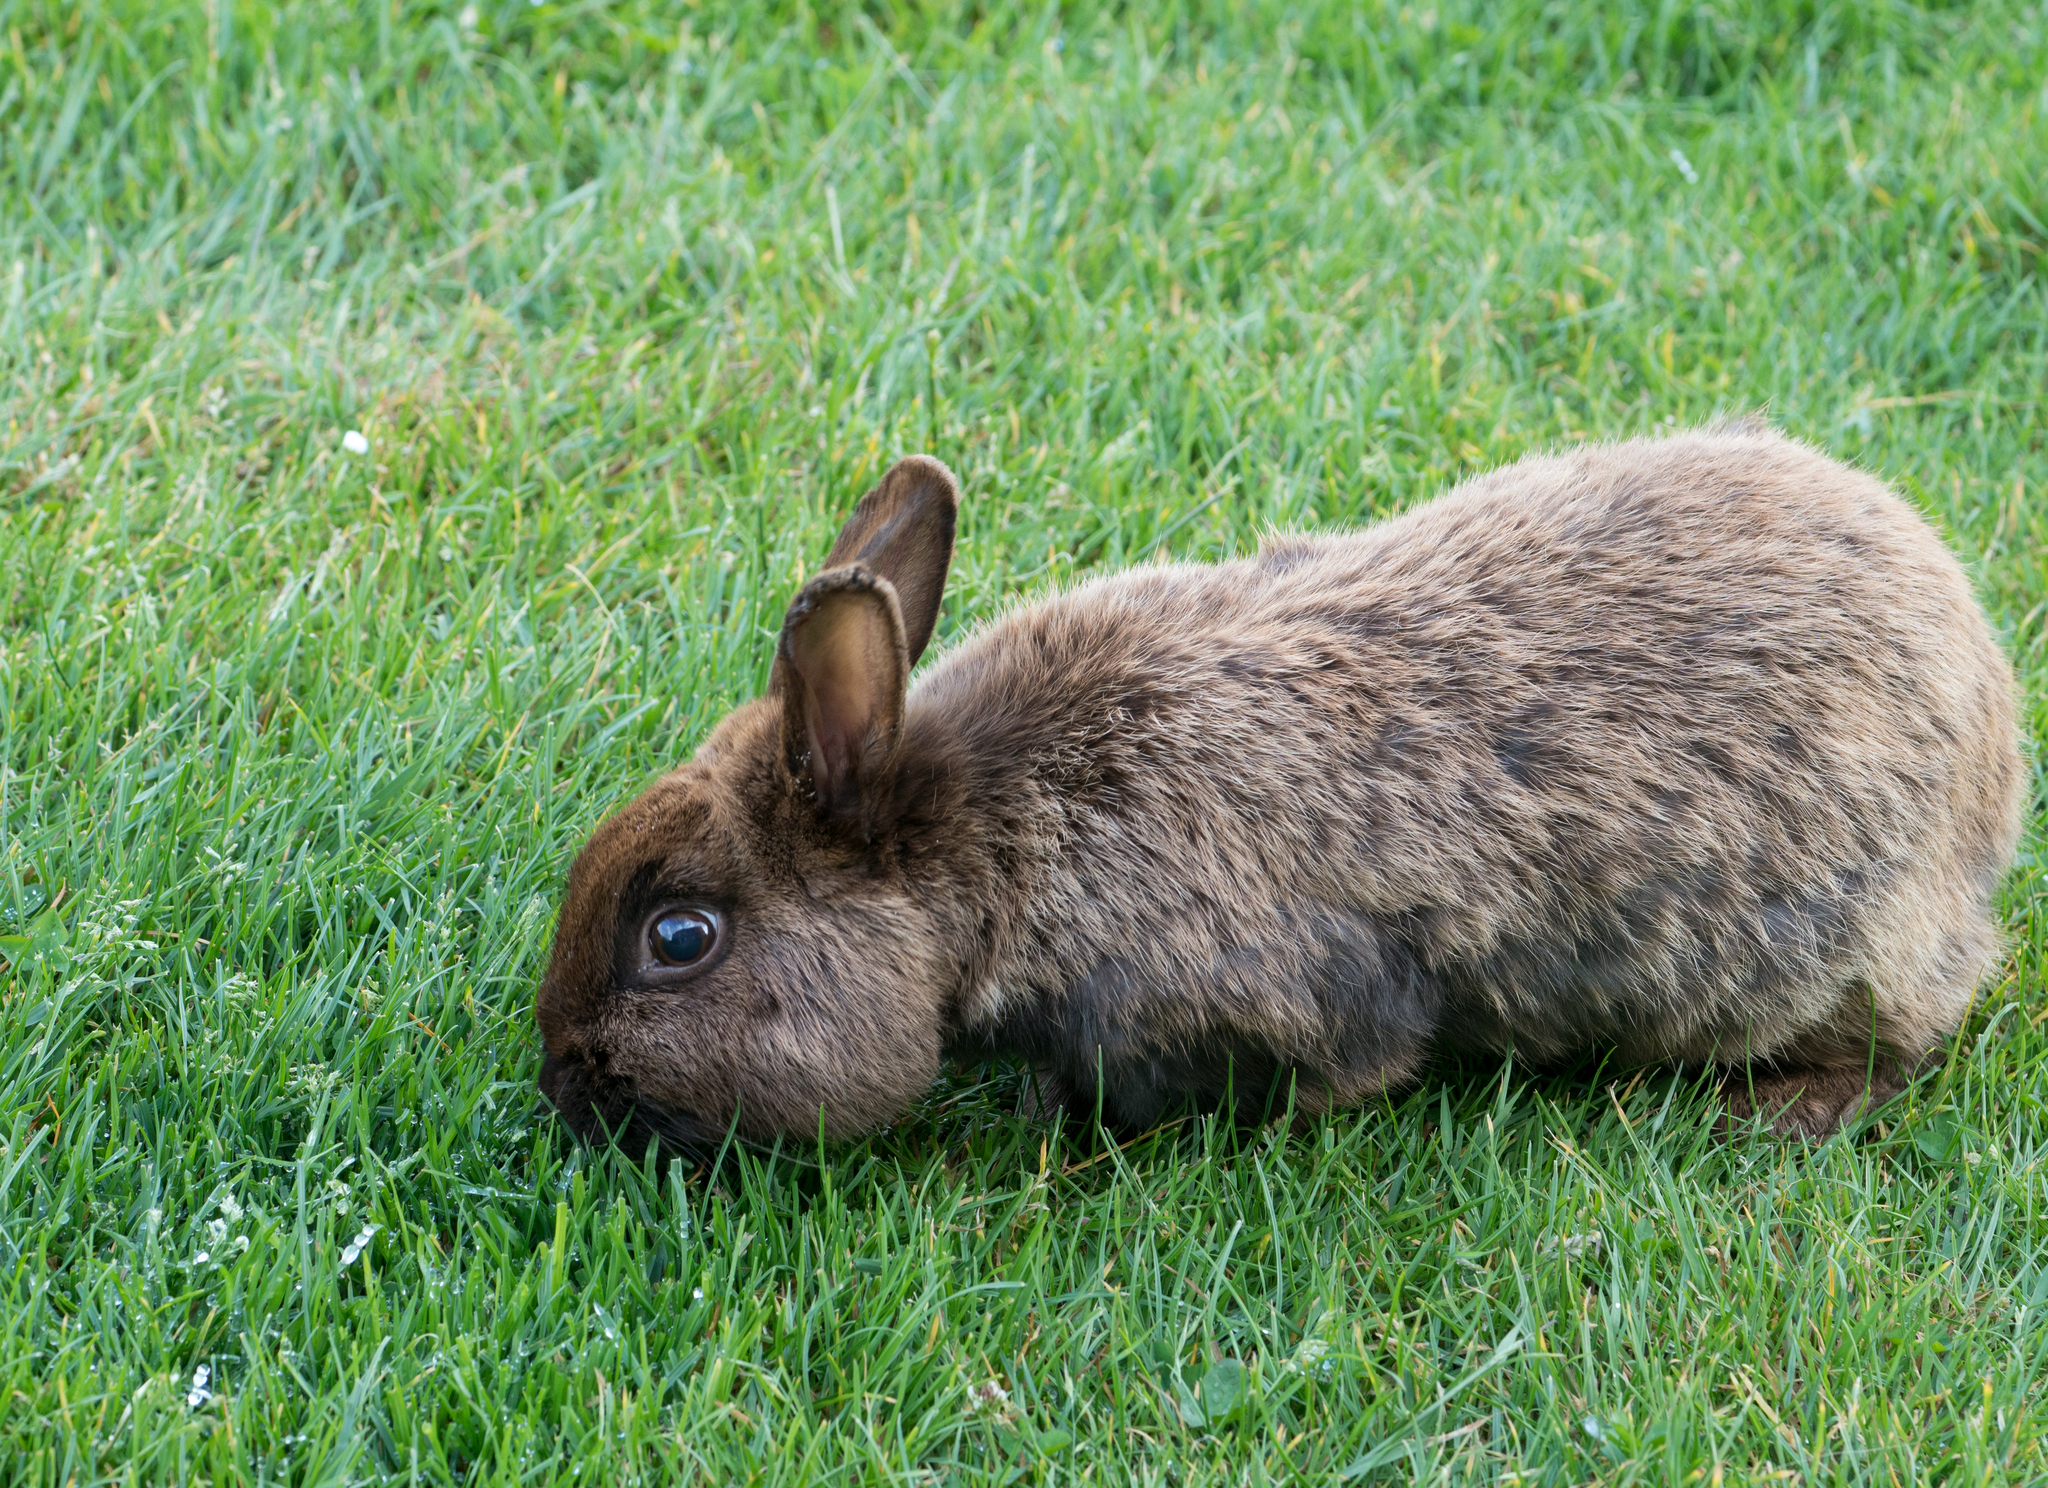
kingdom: Animalia
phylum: Chordata
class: Mammalia
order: Lagomorpha
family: Leporidae
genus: Oryctolagus
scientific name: Oryctolagus cuniculus
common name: European rabbit
